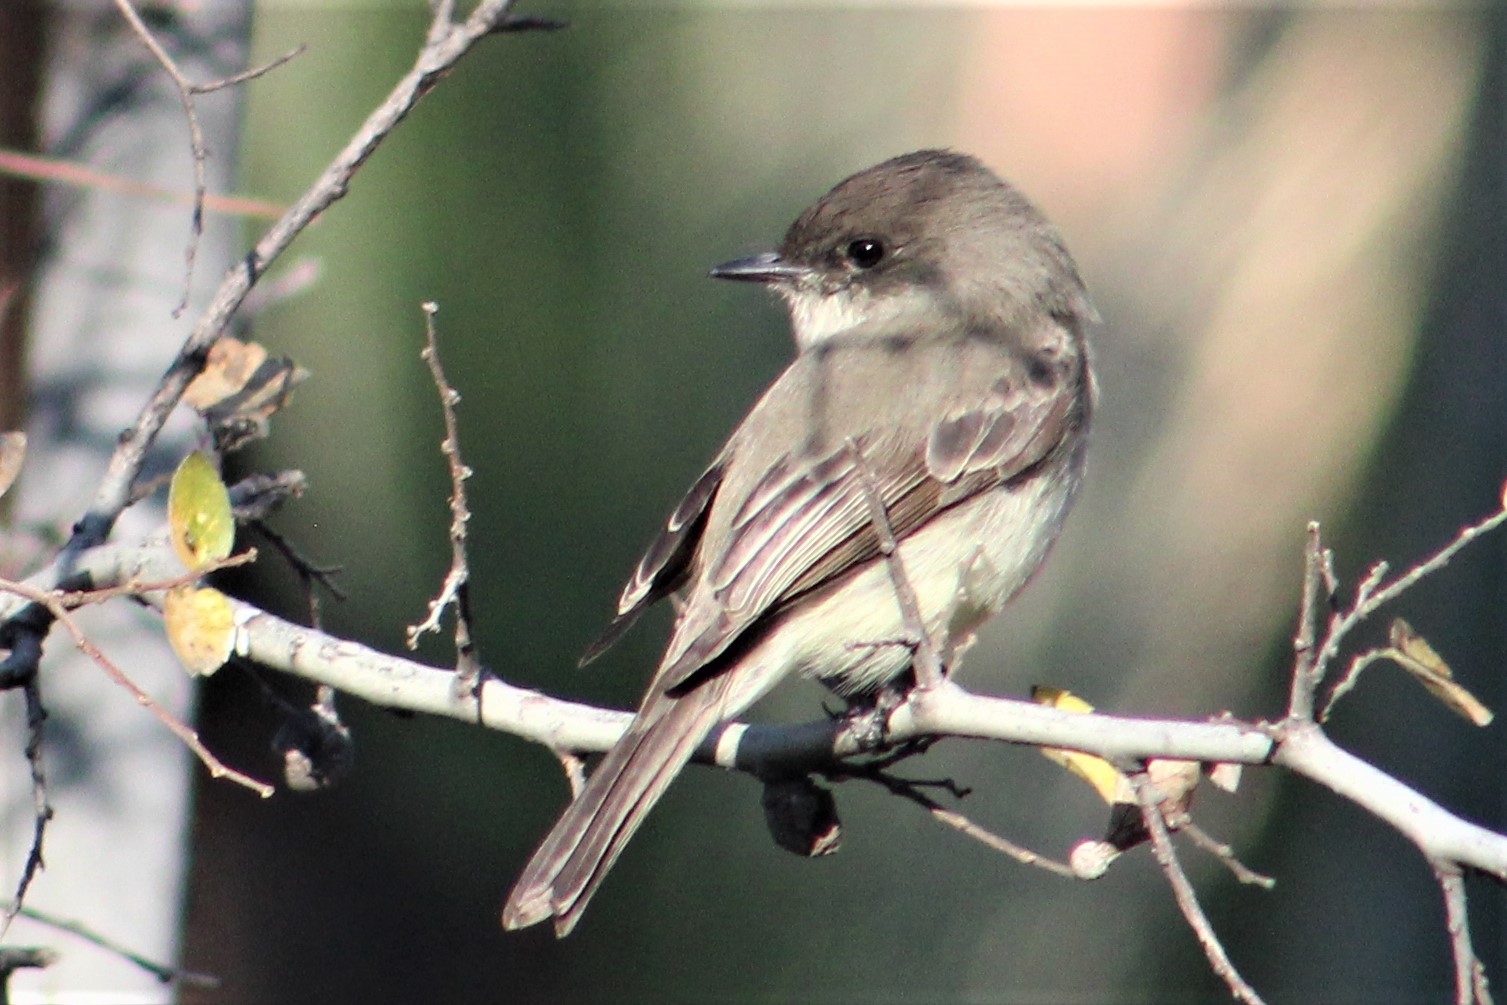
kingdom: Animalia
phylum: Chordata
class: Aves
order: Passeriformes
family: Tyrannidae
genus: Sayornis
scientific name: Sayornis phoebe
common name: Eastern phoebe
